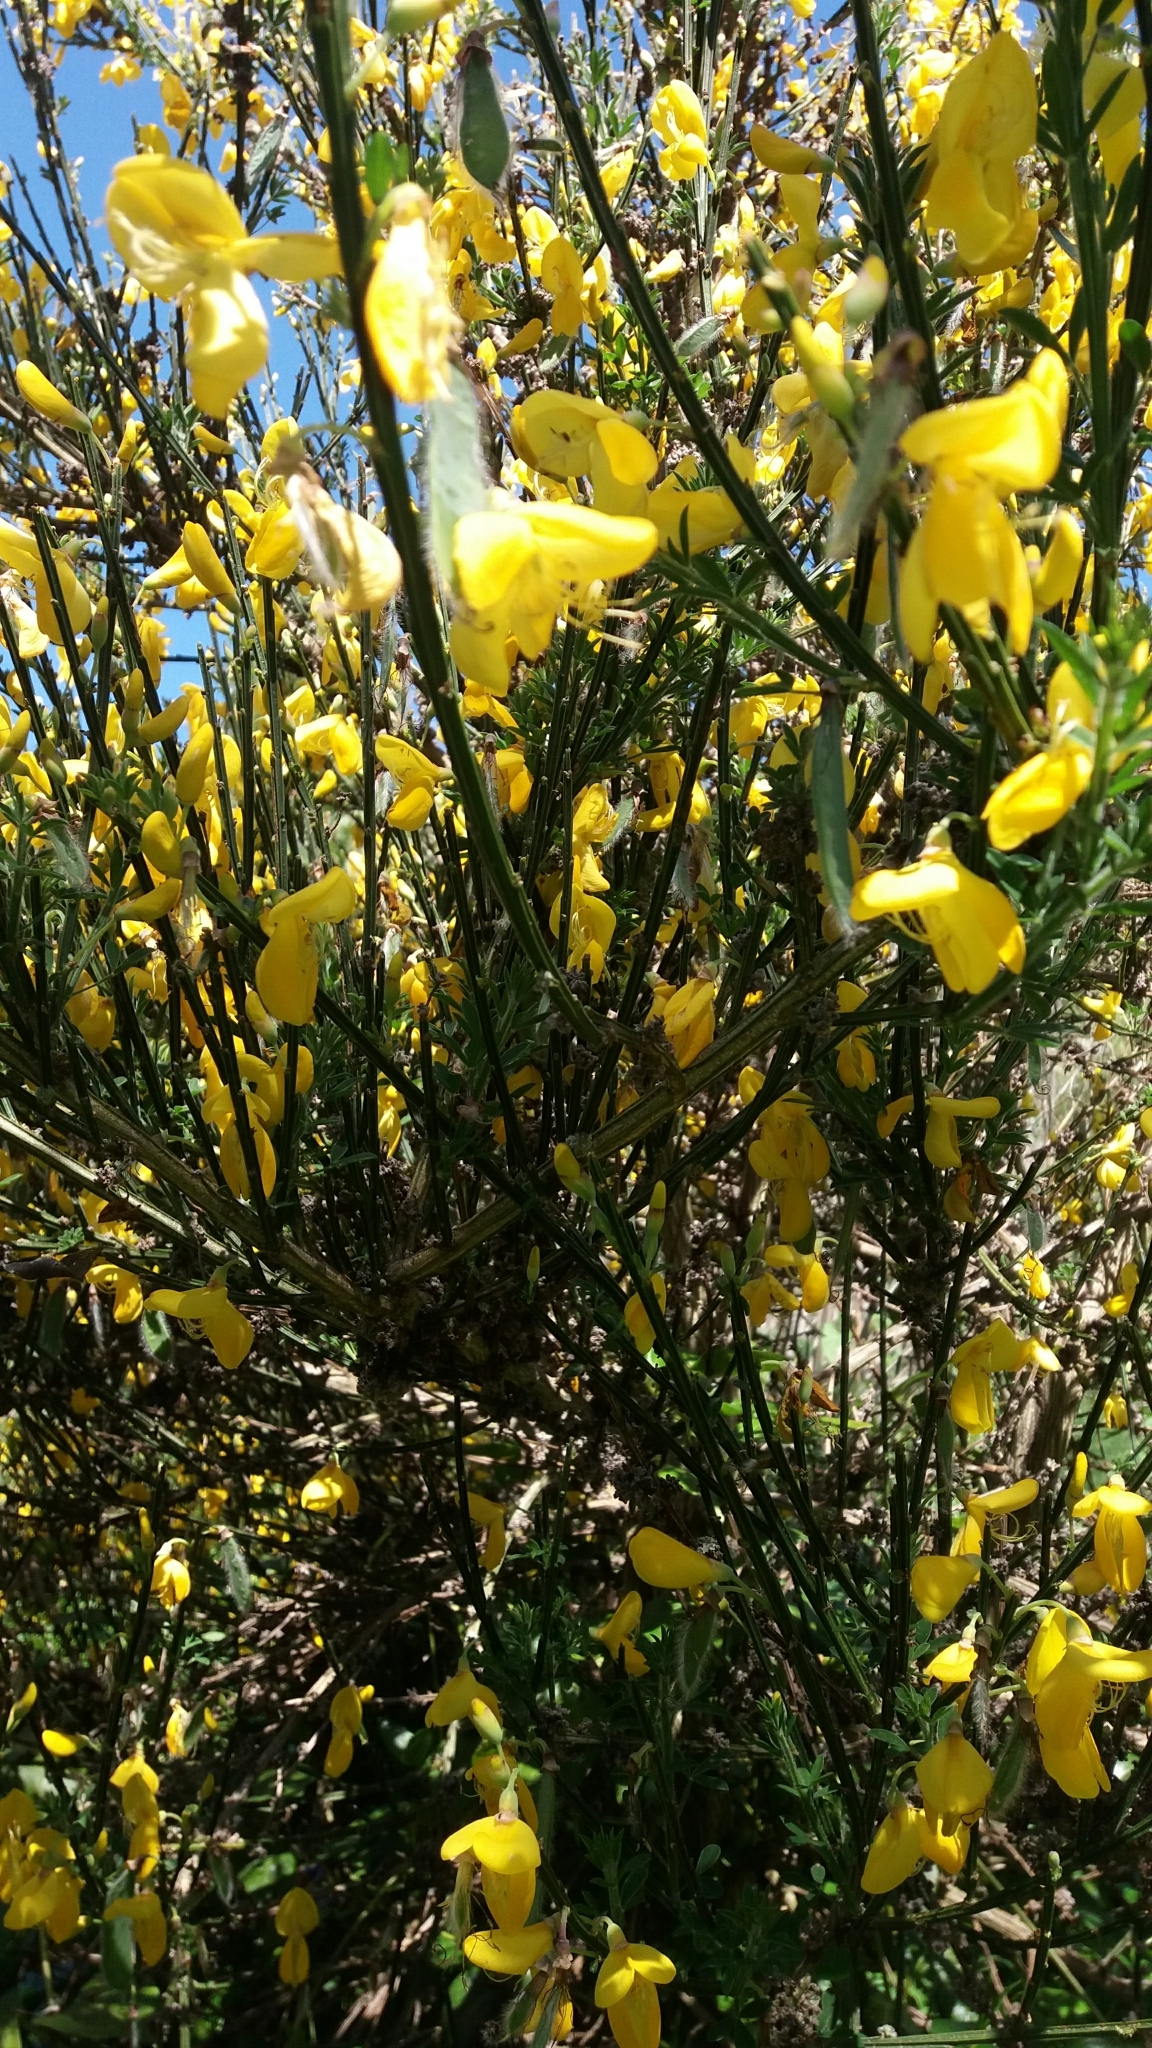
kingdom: Plantae
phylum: Tracheophyta
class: Magnoliopsida
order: Fabales
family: Fabaceae
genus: Cytisus
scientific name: Cytisus scoparius
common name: Scotch broom
